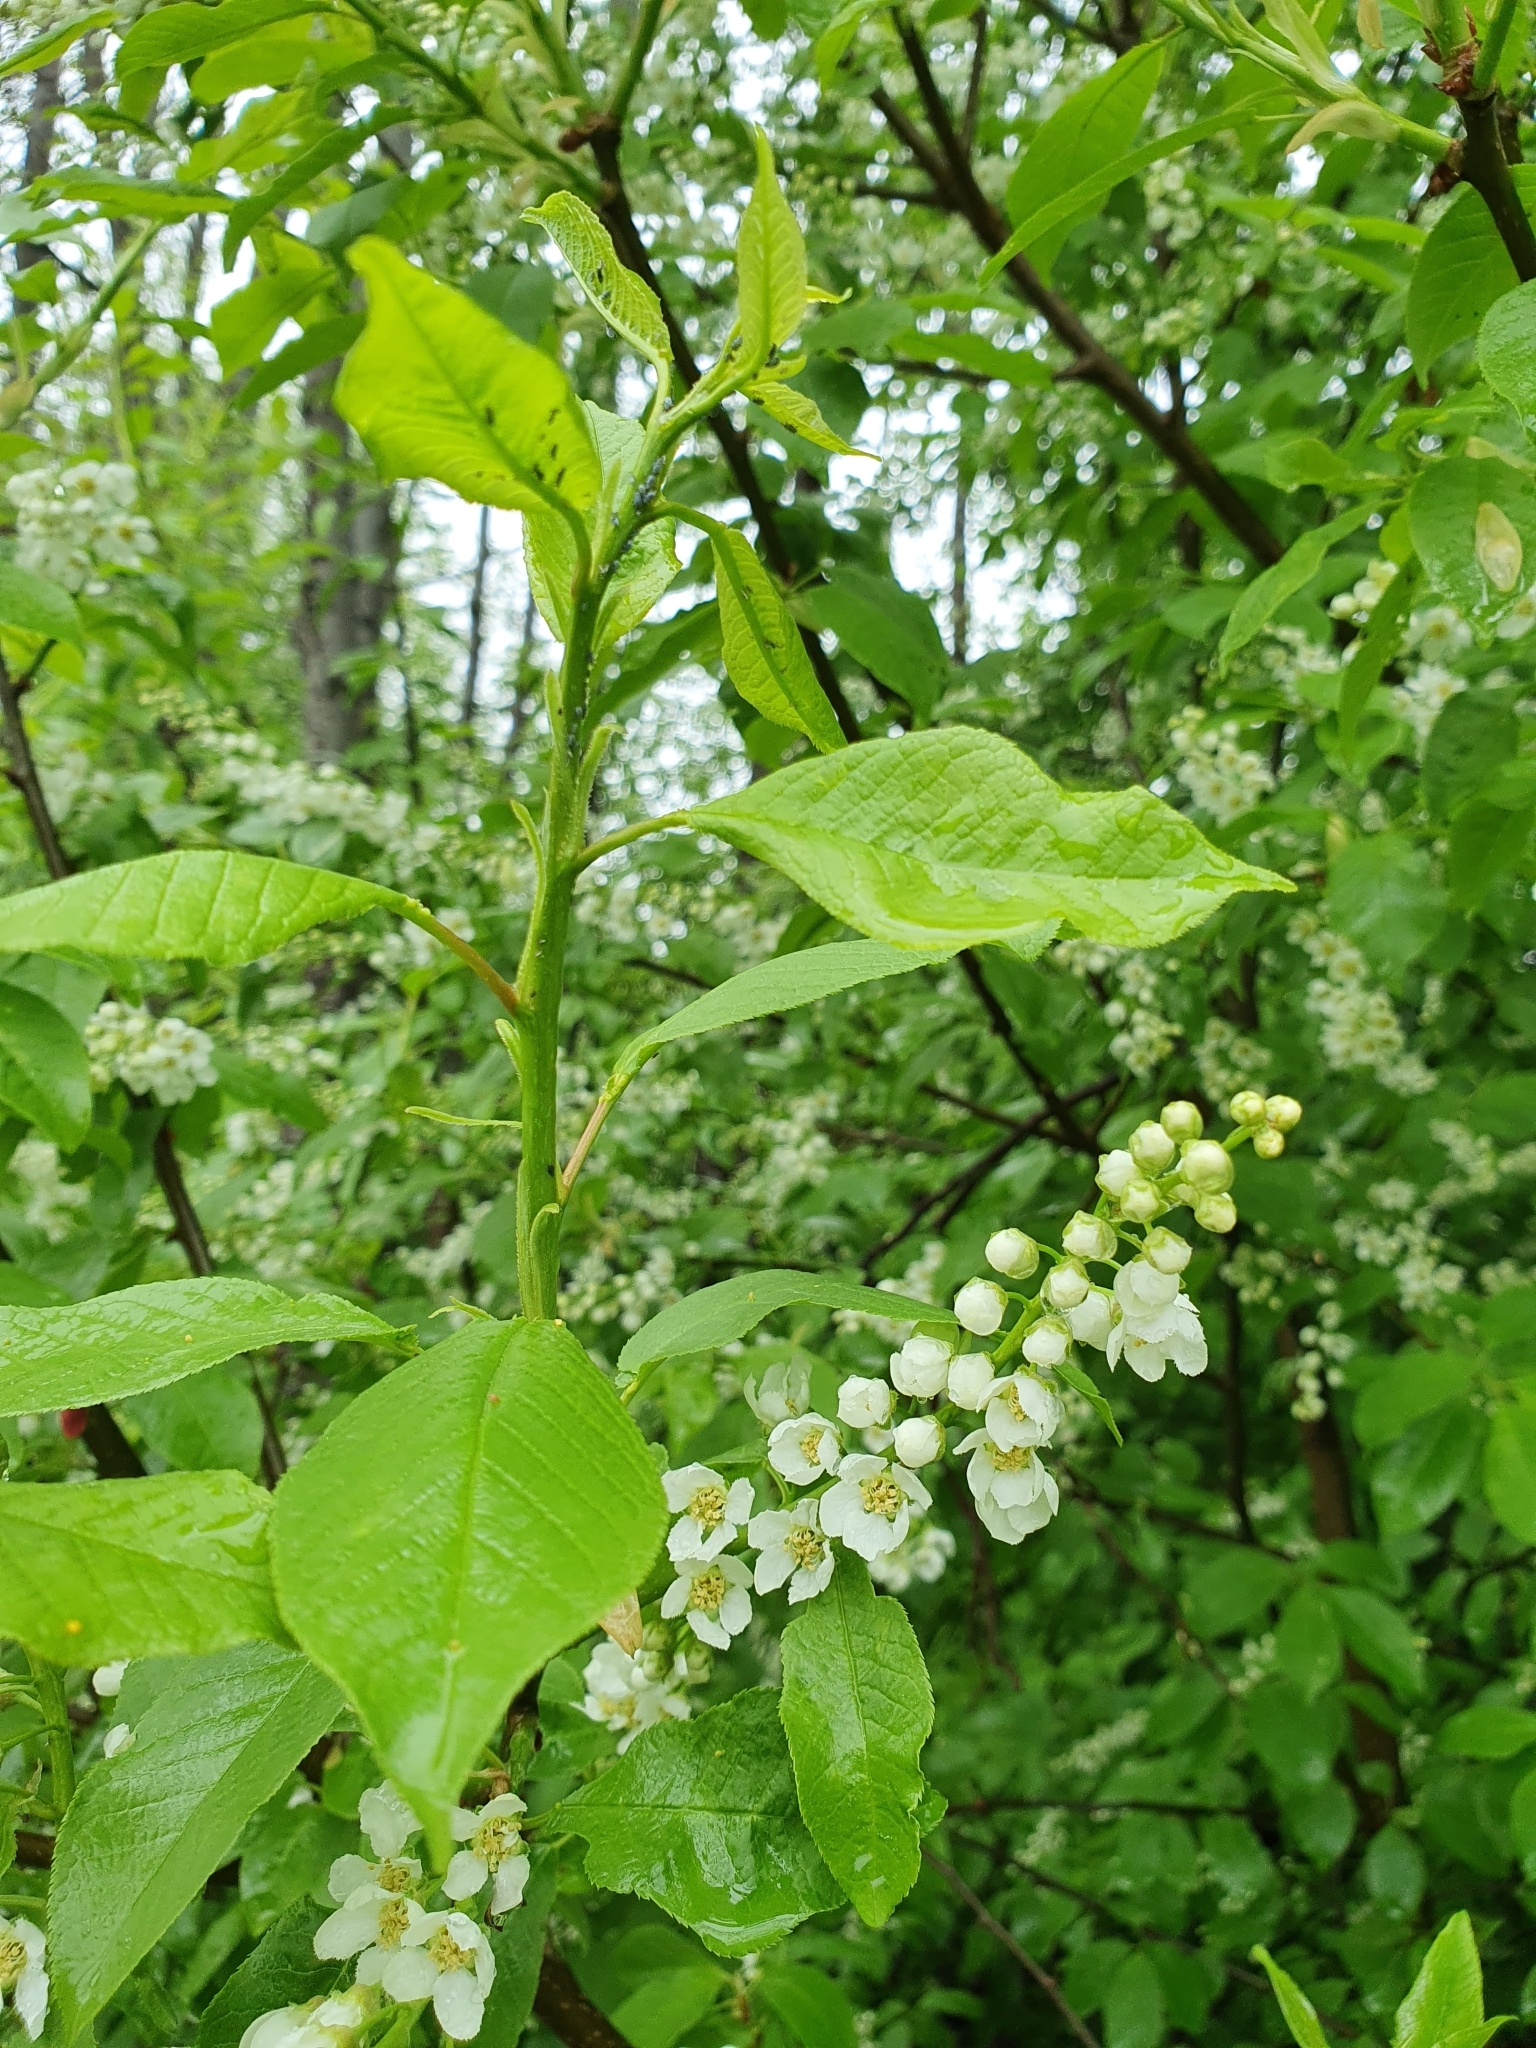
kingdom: Plantae
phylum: Tracheophyta
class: Magnoliopsida
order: Rosales
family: Rosaceae
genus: Prunus
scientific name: Prunus padus
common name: Bird cherry
